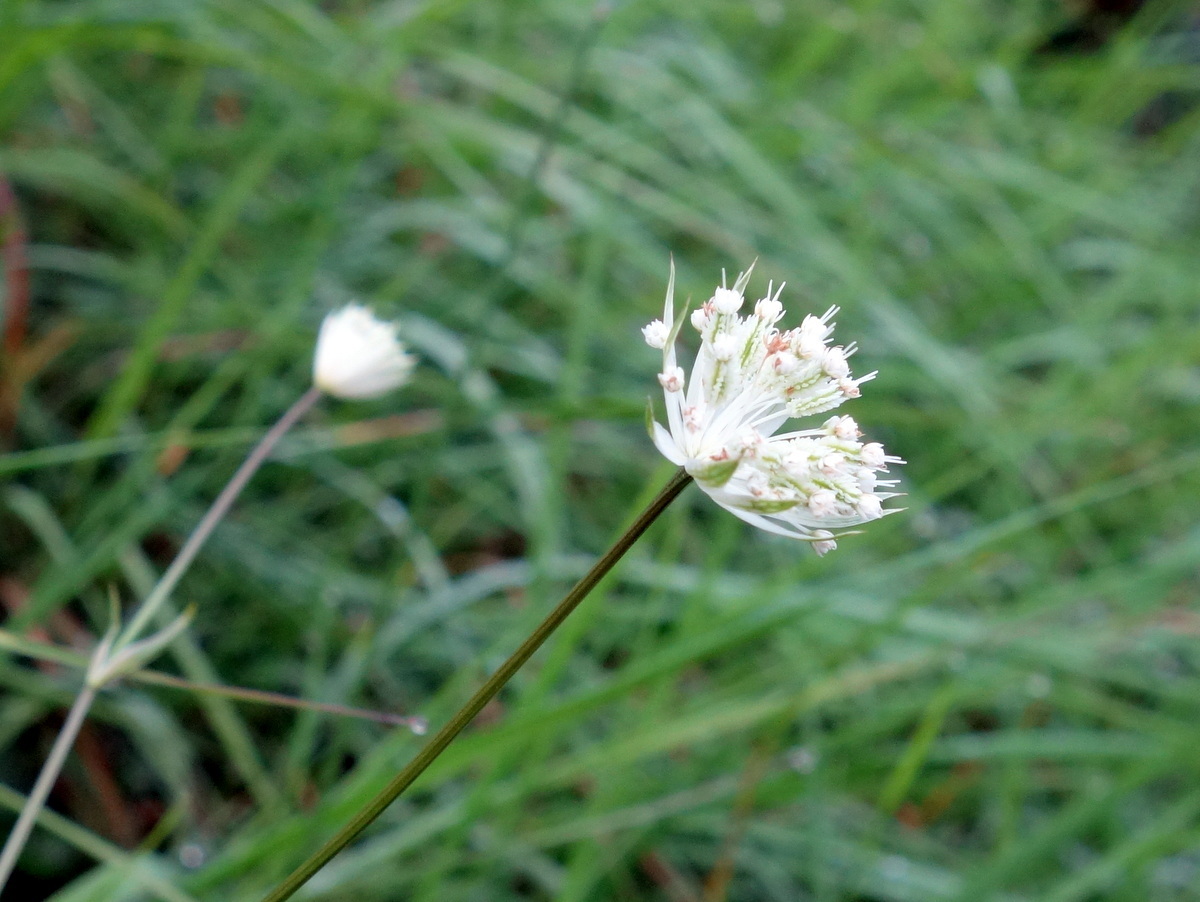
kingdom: Plantae
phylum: Tracheophyta
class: Magnoliopsida
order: Apiales
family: Apiaceae
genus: Astrantia
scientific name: Astrantia minor
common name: Lesser masterwort
